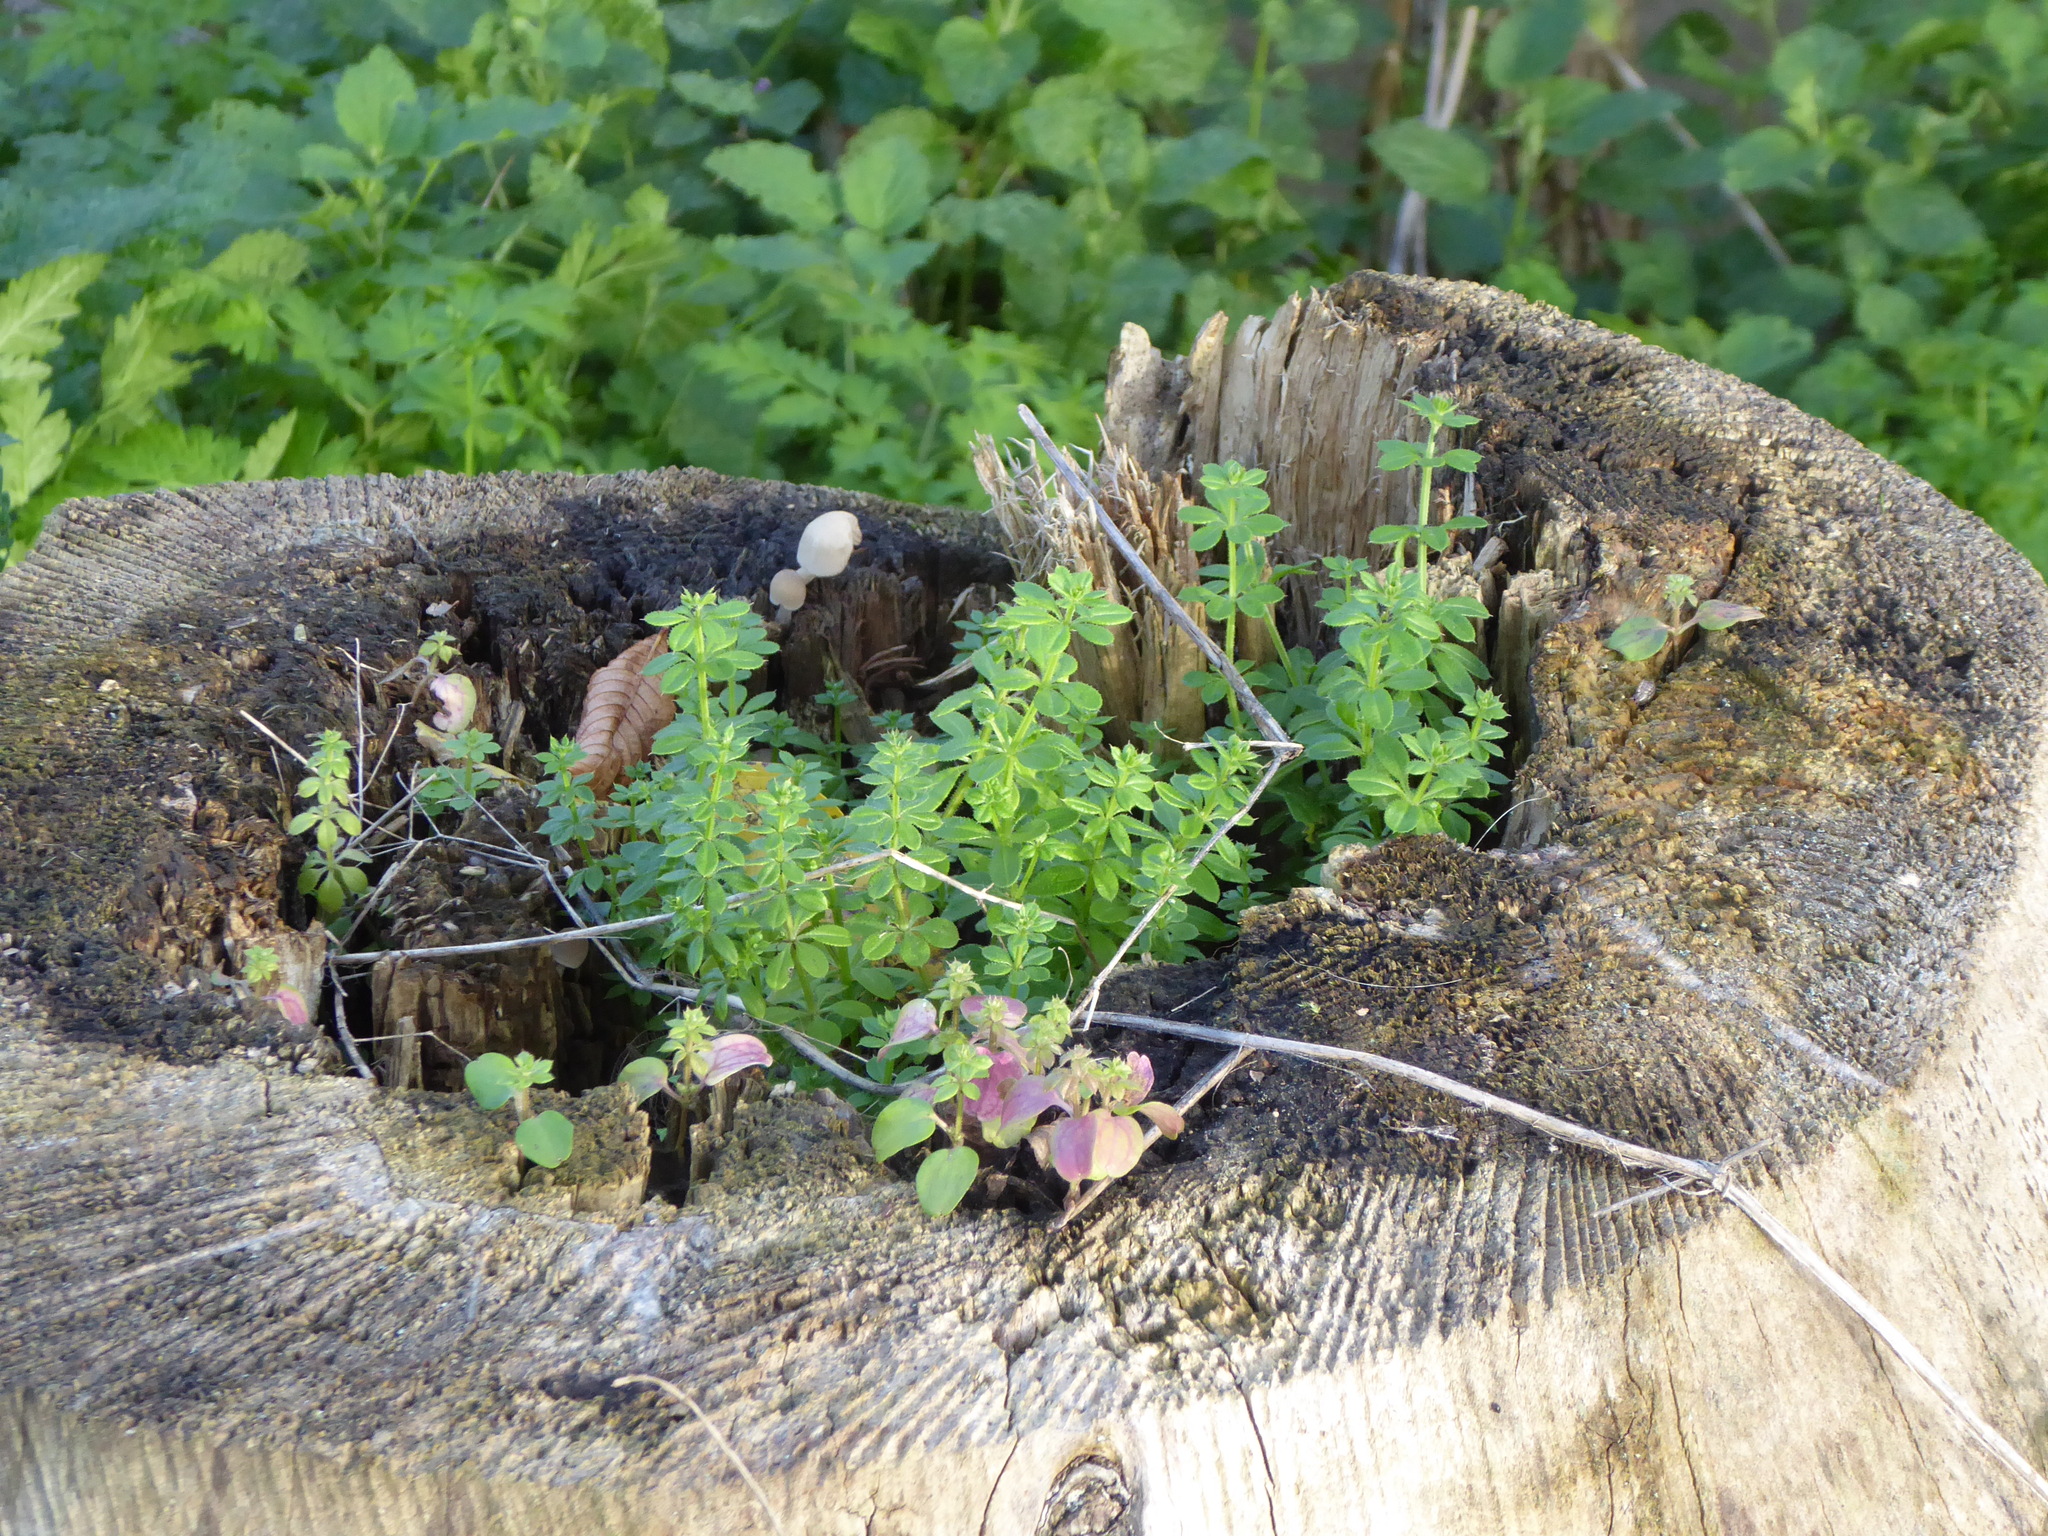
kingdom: Plantae
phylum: Tracheophyta
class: Magnoliopsida
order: Gentianales
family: Rubiaceae
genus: Galium
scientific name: Galium aparine
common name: Cleavers
